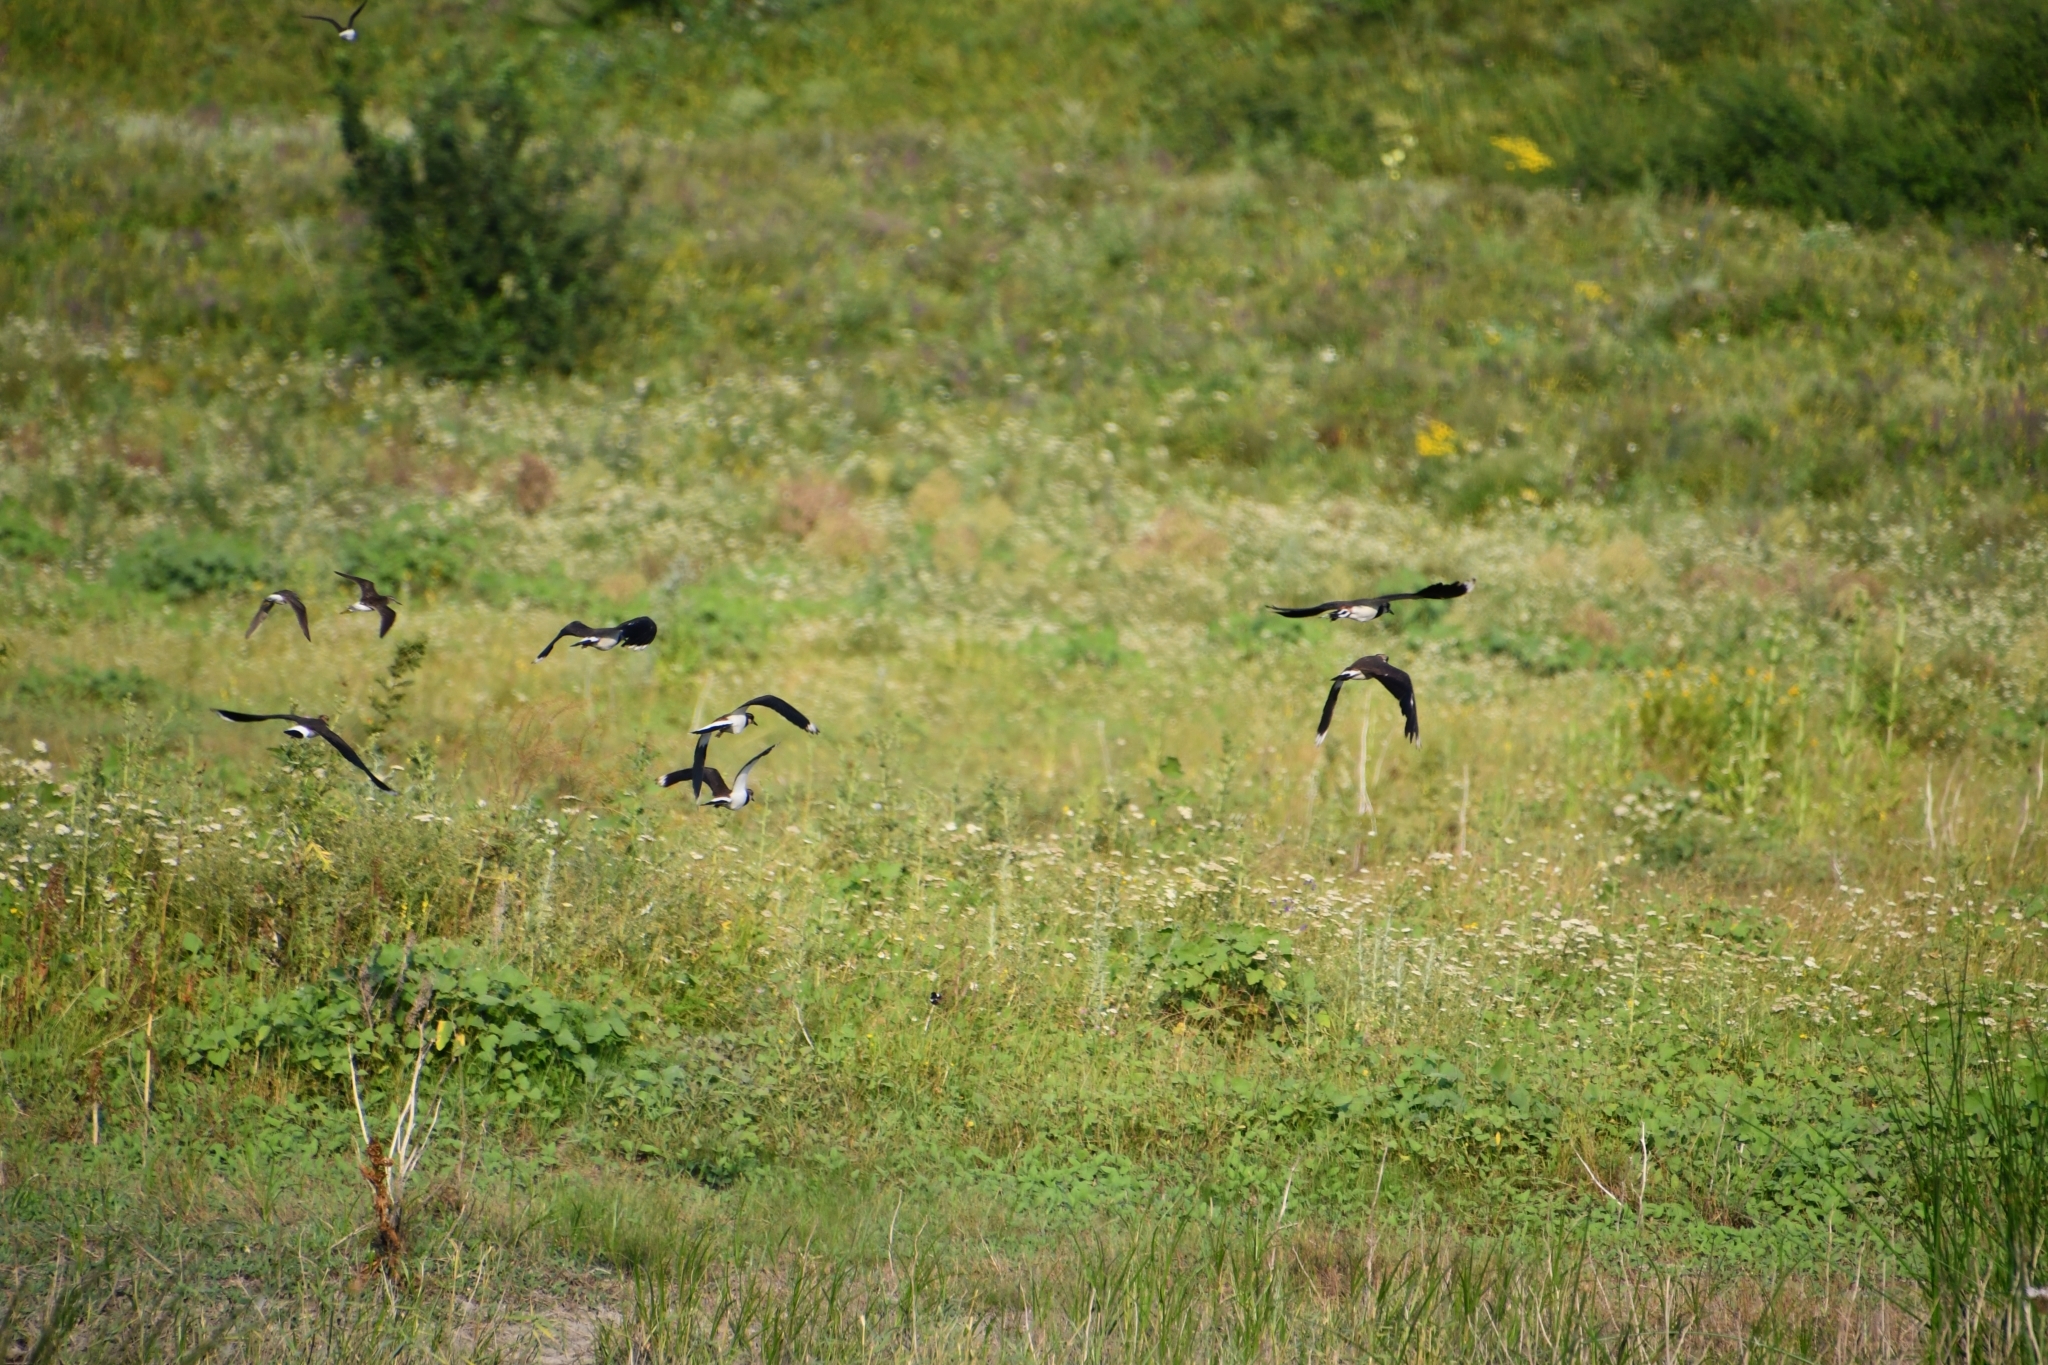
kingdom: Animalia
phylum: Chordata
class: Aves
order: Charadriiformes
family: Charadriidae
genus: Vanellus
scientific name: Vanellus vanellus
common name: Northern lapwing
